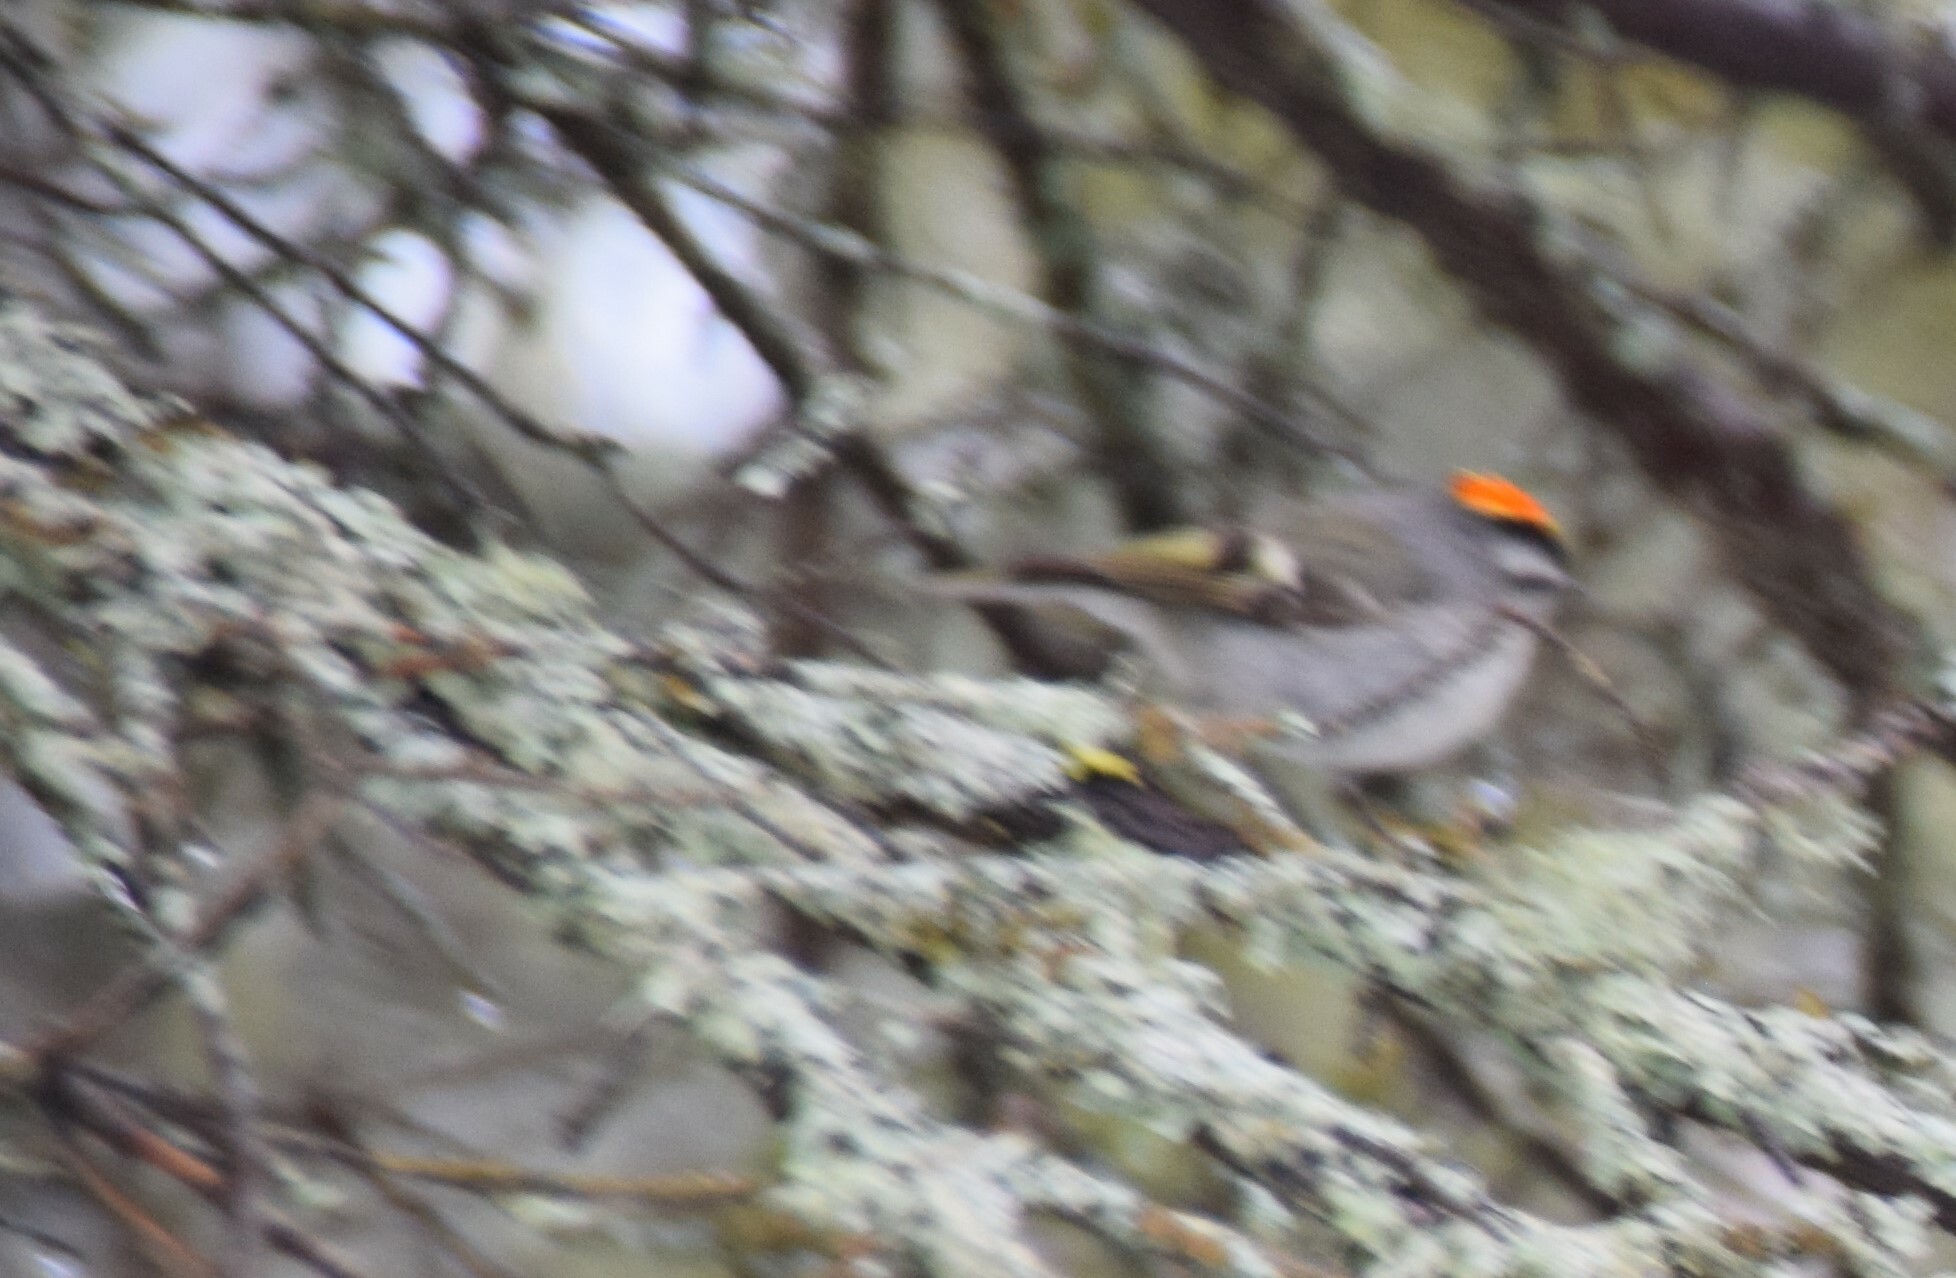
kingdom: Animalia
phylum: Chordata
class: Aves
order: Passeriformes
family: Regulidae
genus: Regulus
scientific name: Regulus satrapa
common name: Golden-crowned kinglet
